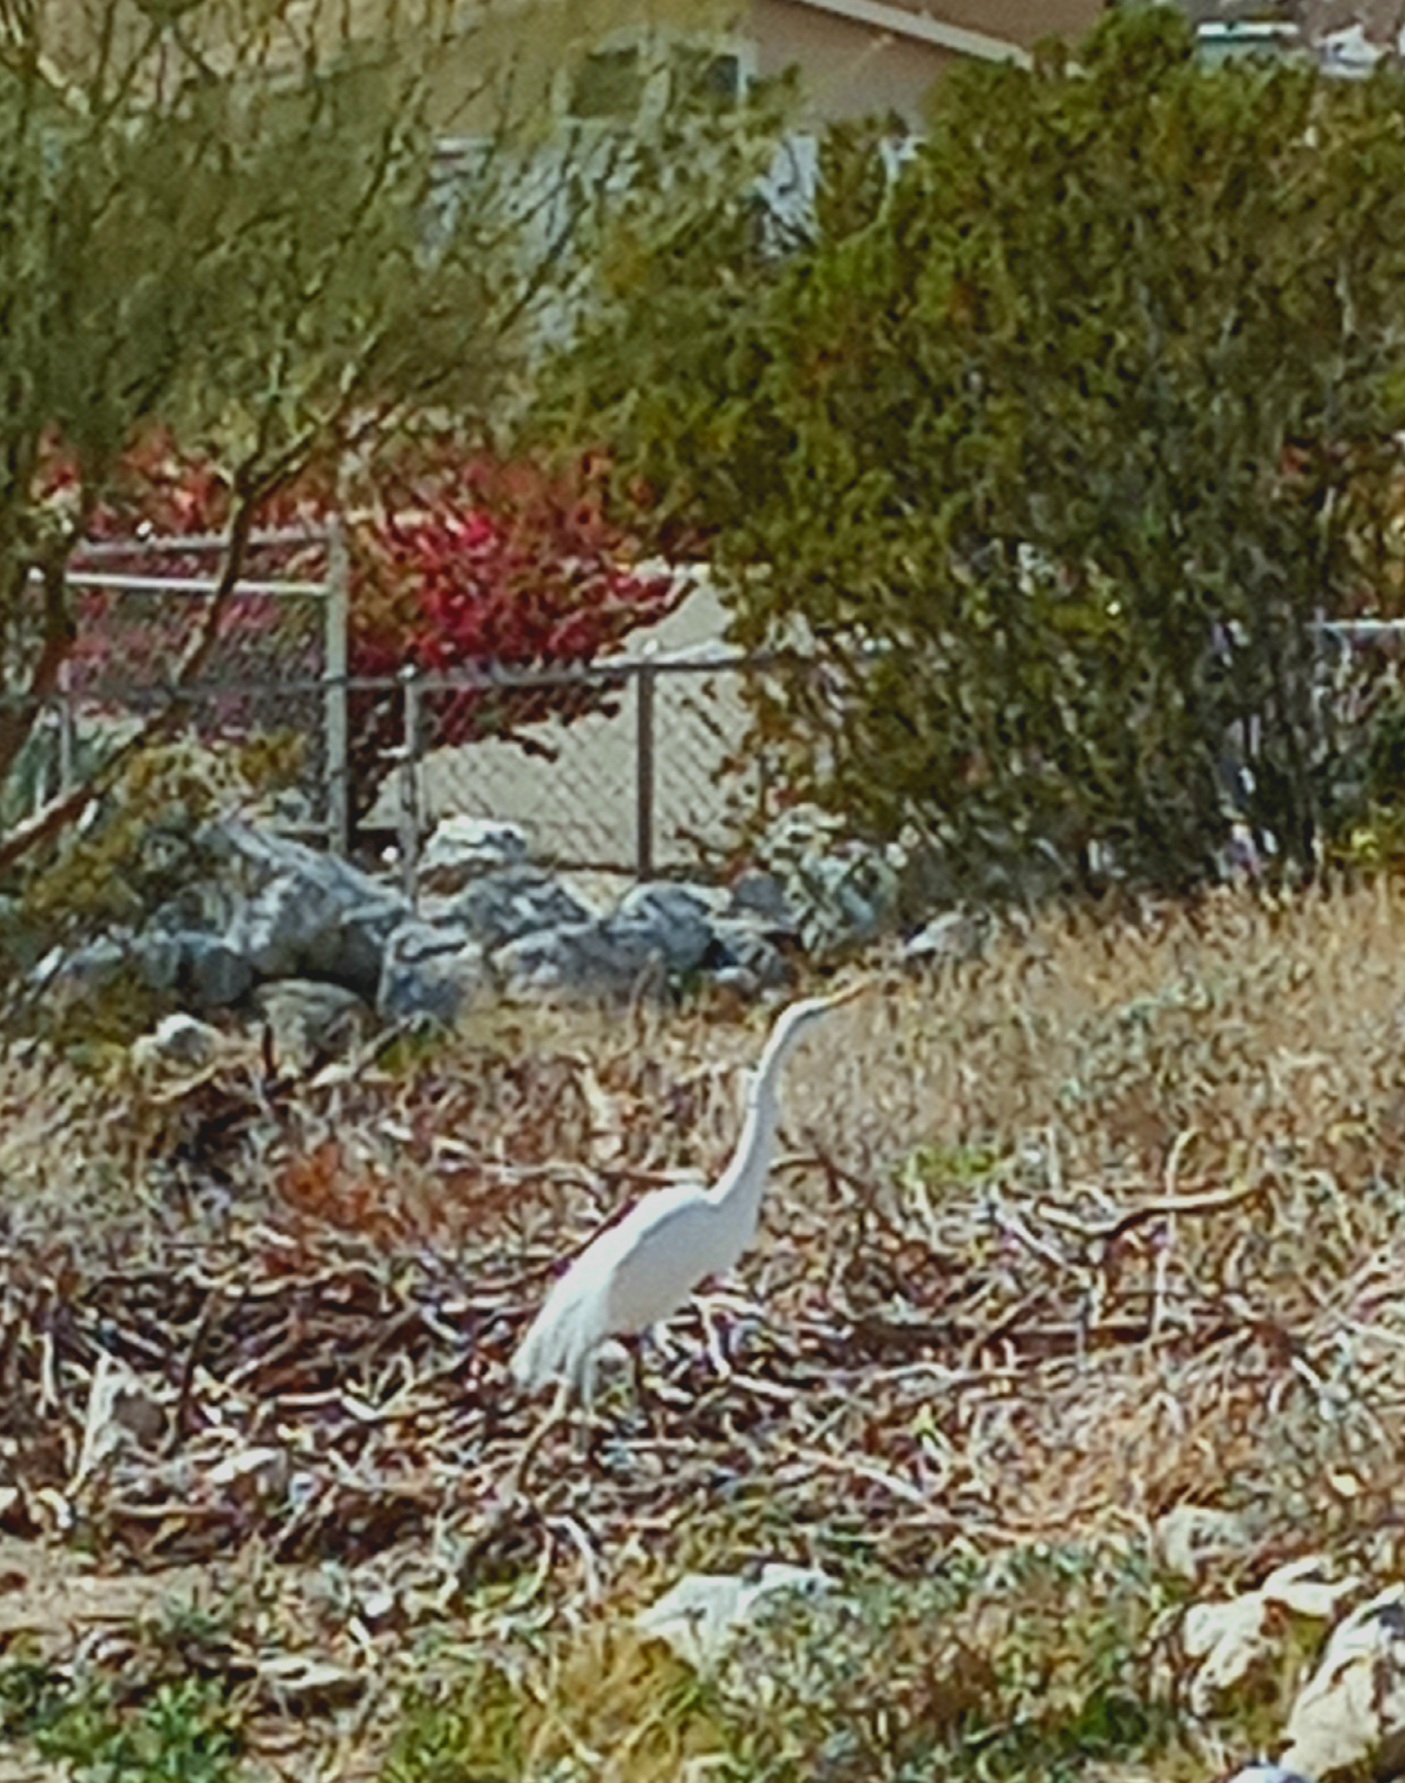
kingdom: Animalia
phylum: Chordata
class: Aves
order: Pelecaniformes
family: Ardeidae
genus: Ardea
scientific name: Ardea alba
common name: Great egret
